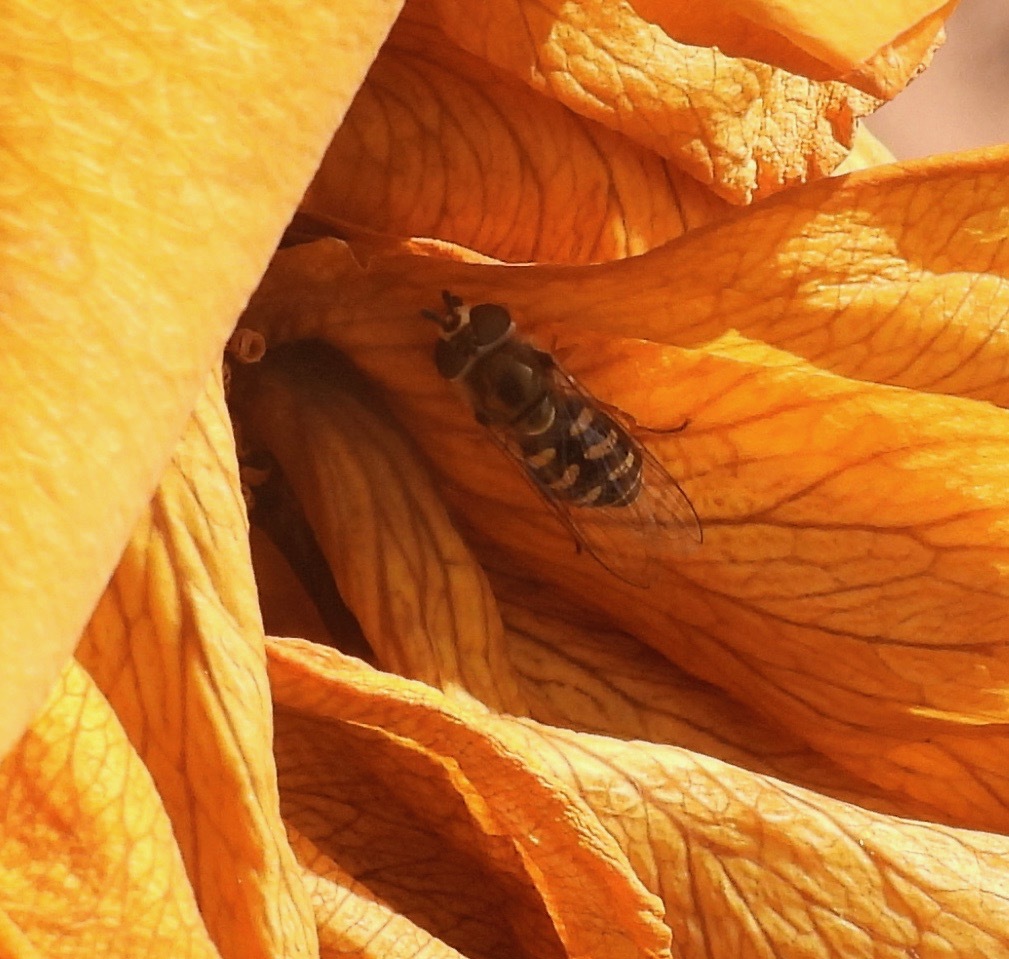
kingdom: Animalia
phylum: Arthropoda
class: Insecta
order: Diptera
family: Syrphidae
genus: Eupeodes
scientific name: Eupeodes volucris
